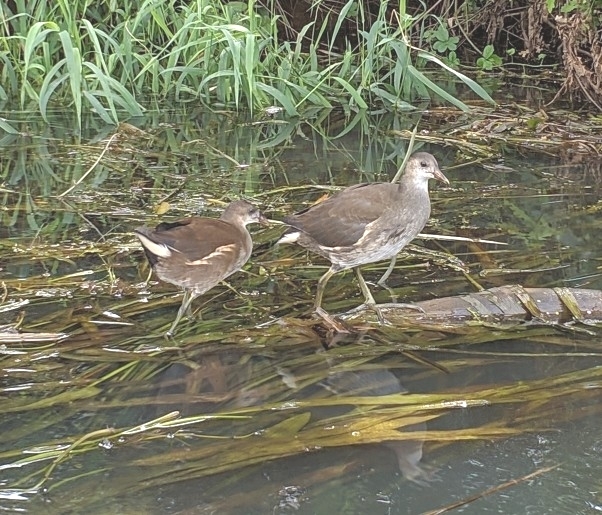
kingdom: Animalia
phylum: Chordata
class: Aves
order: Gruiformes
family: Rallidae
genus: Gallinula
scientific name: Gallinula chloropus
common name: Common moorhen
